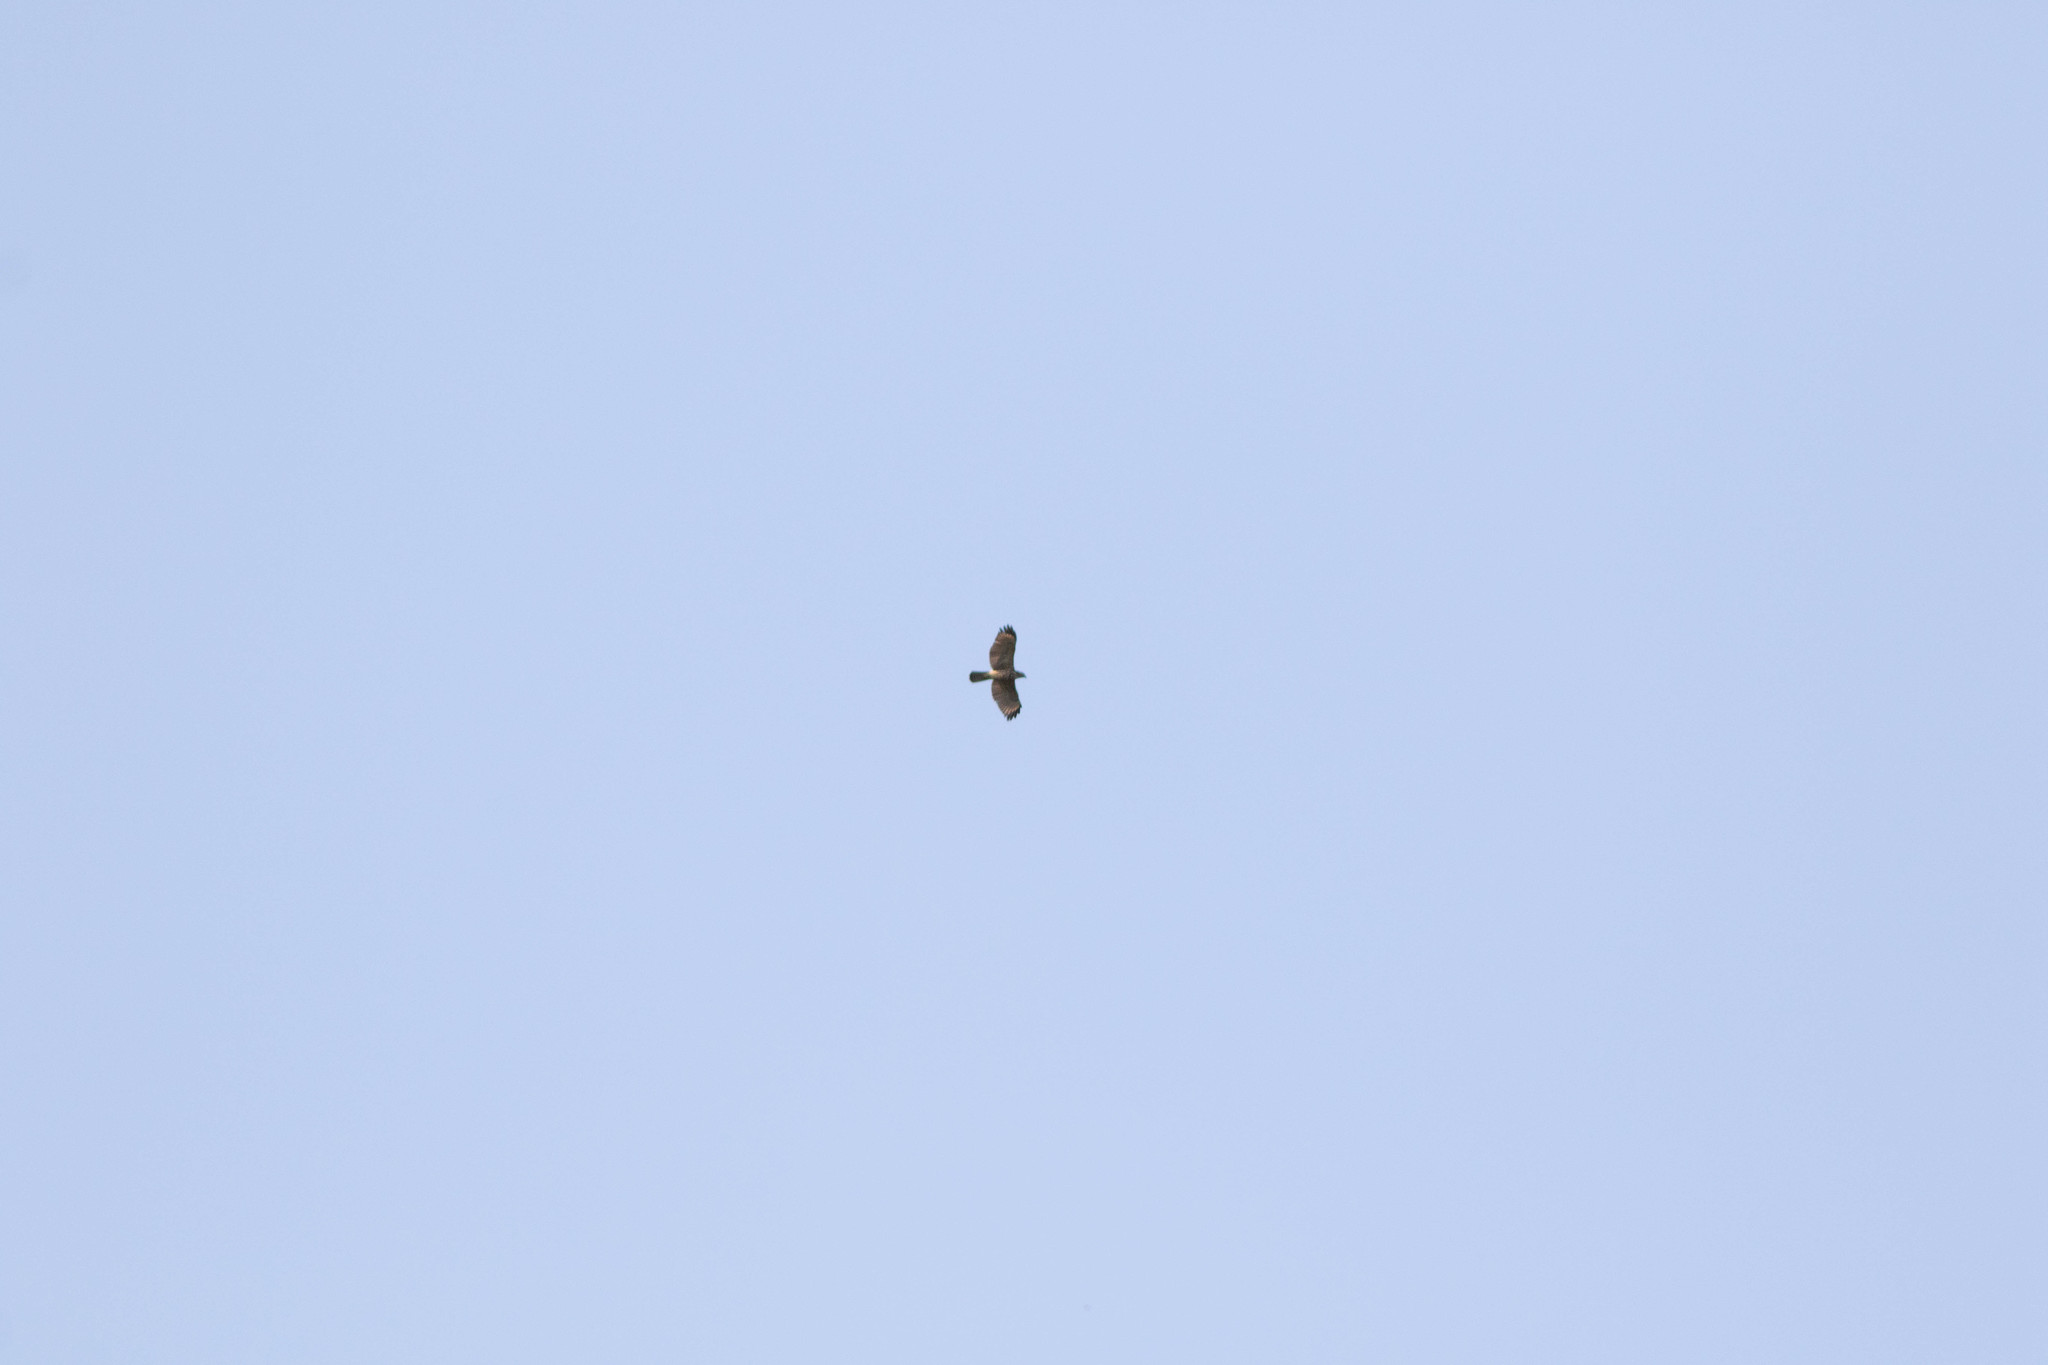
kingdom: Animalia
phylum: Chordata
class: Aves
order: Accipitriformes
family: Accipitridae
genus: Buteo
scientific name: Buteo lineatus
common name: Red-shouldered hawk
